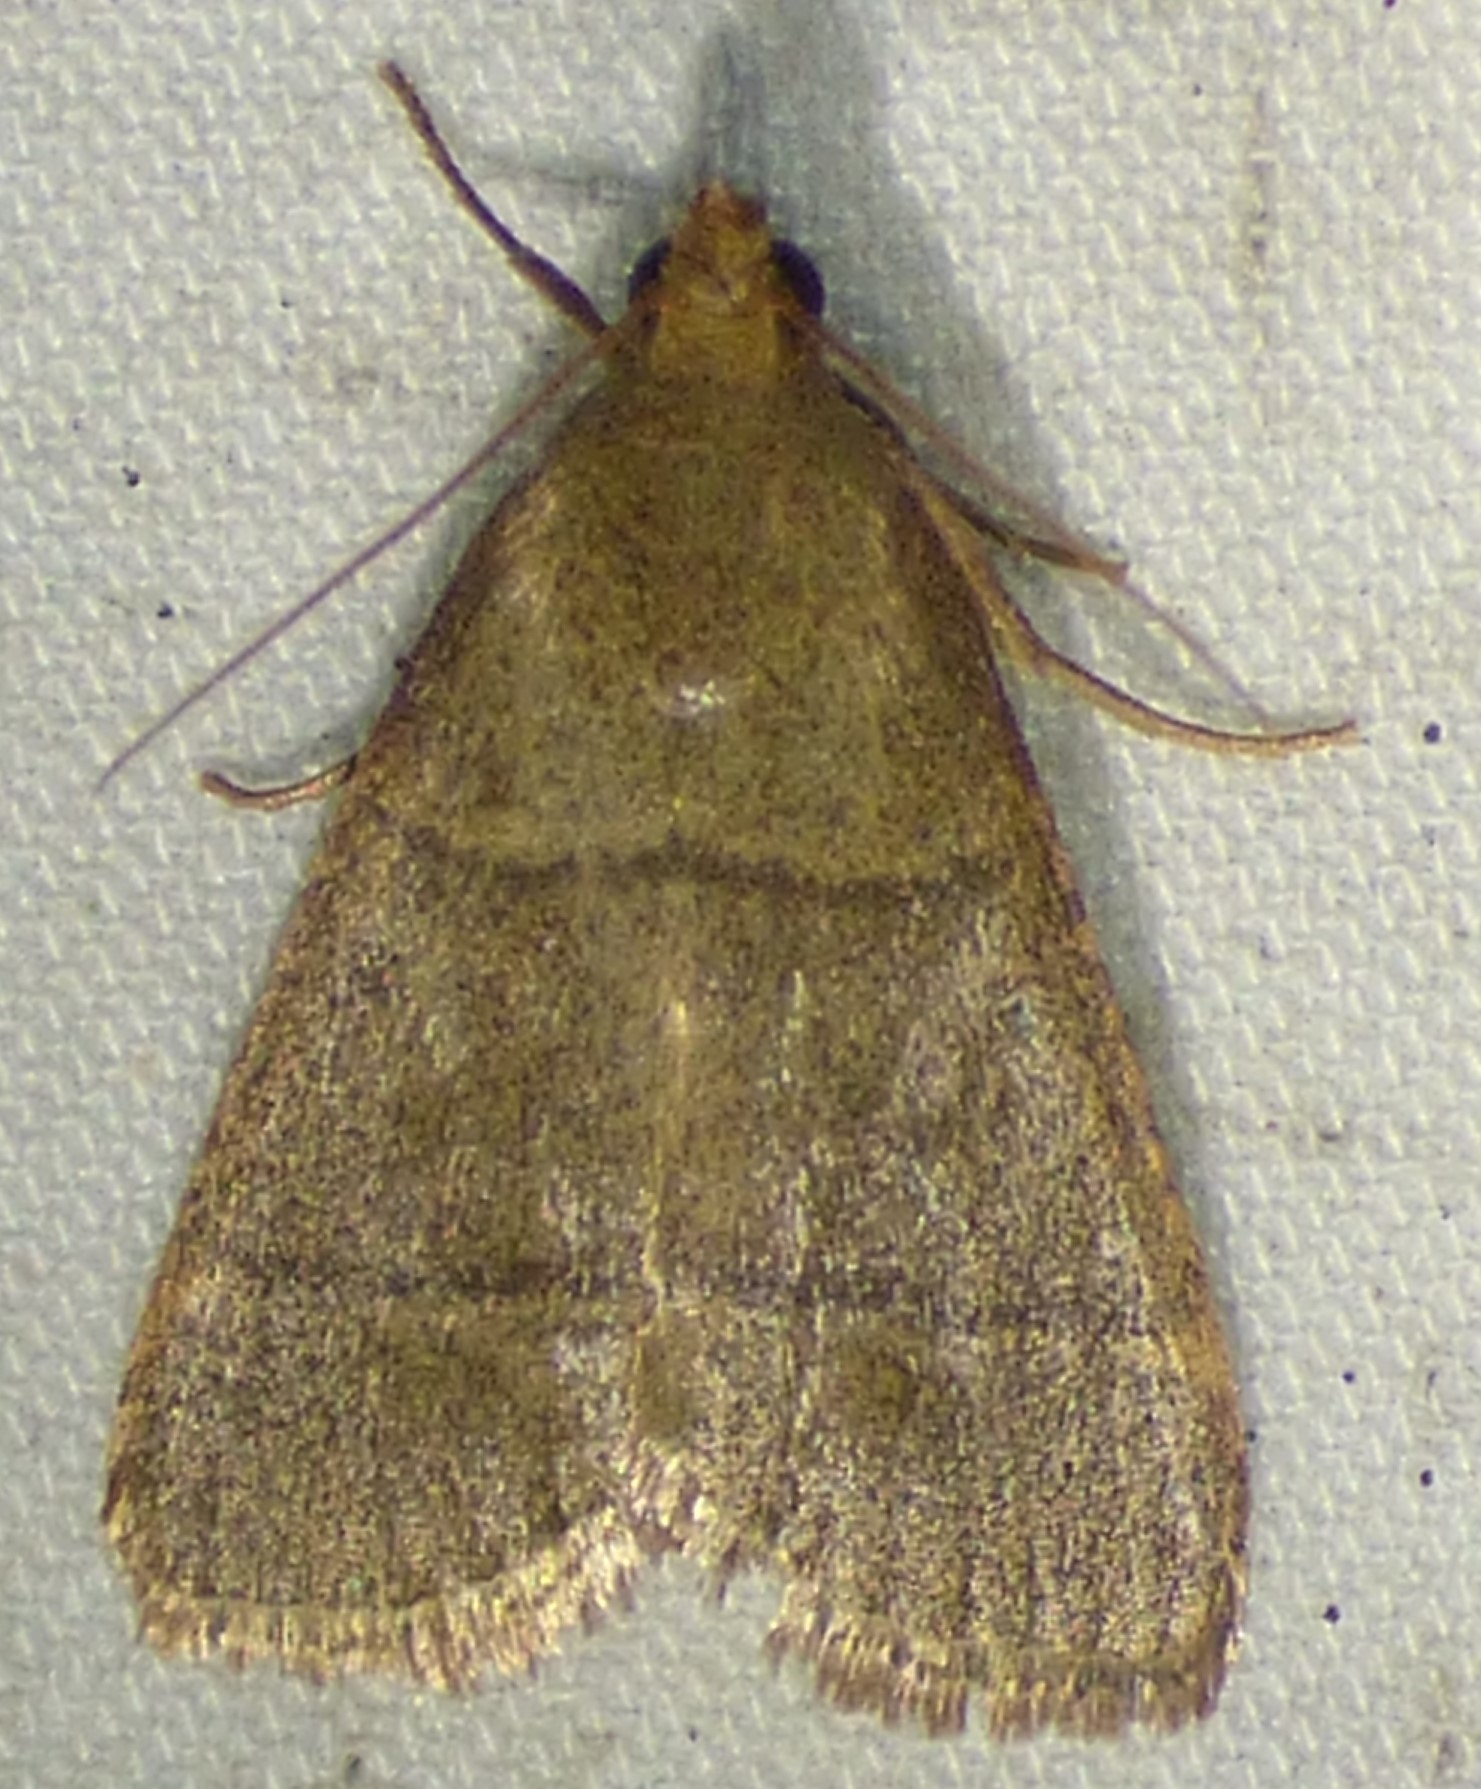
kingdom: Animalia
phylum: Arthropoda
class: Insecta
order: Lepidoptera
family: Pyralidae
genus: Hypsopygia
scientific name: Hypsopygia nostralis
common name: Southern hayworm moth
